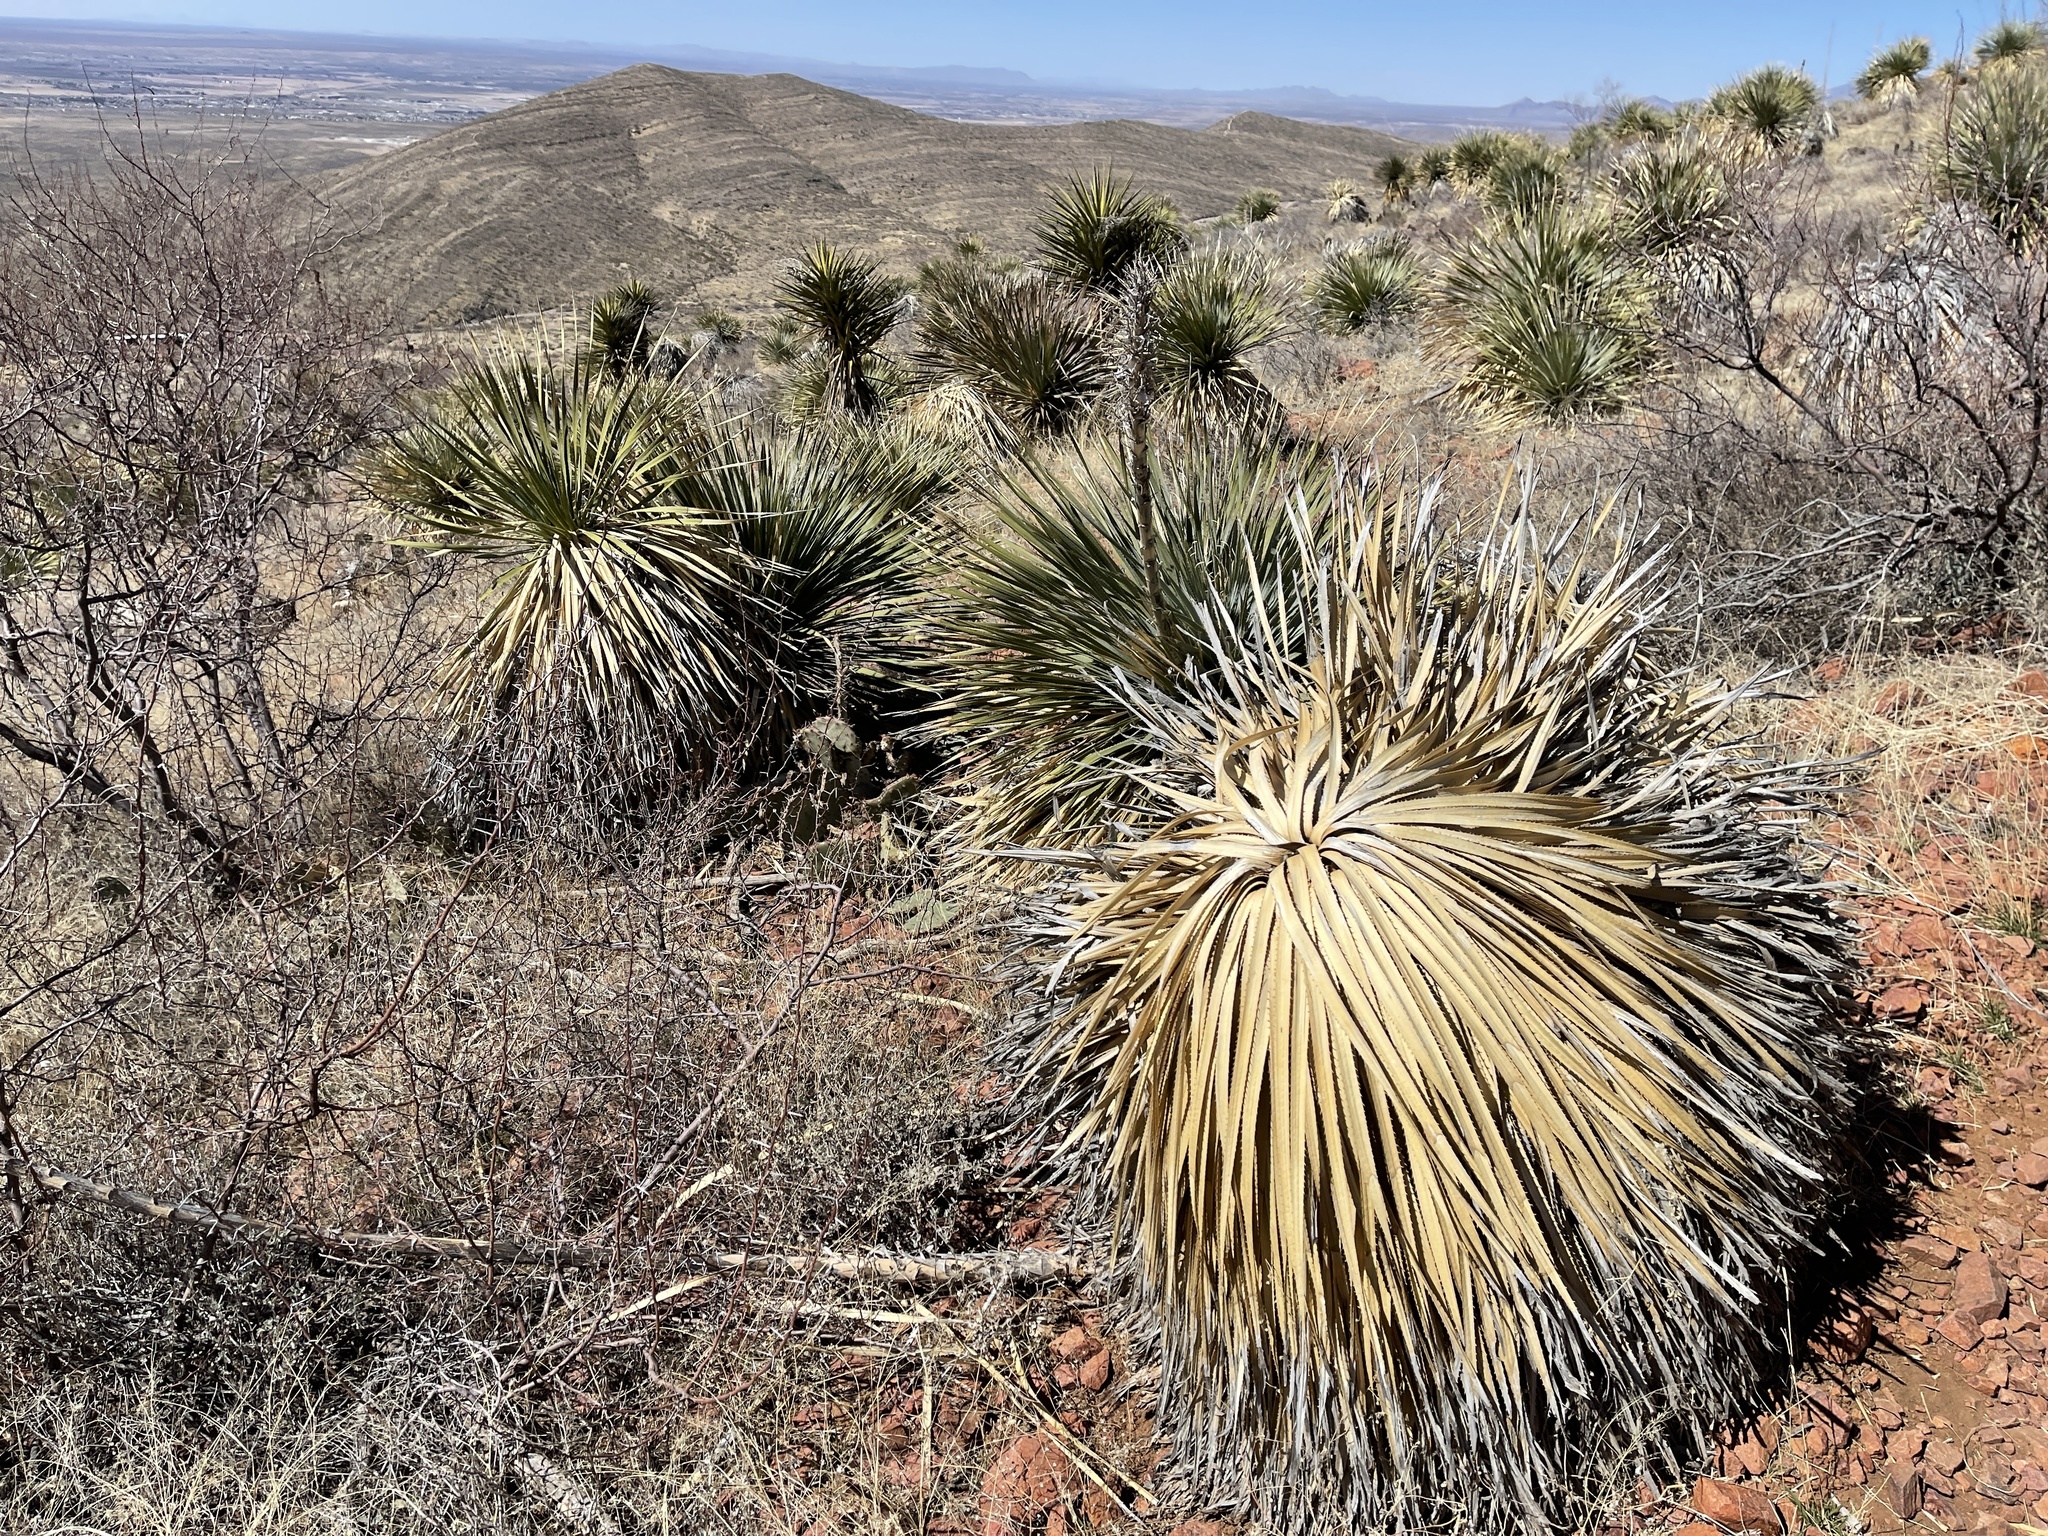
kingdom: Plantae
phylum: Tracheophyta
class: Liliopsida
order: Asparagales
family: Asparagaceae
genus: Dasylirion
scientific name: Dasylirion wheeleri
